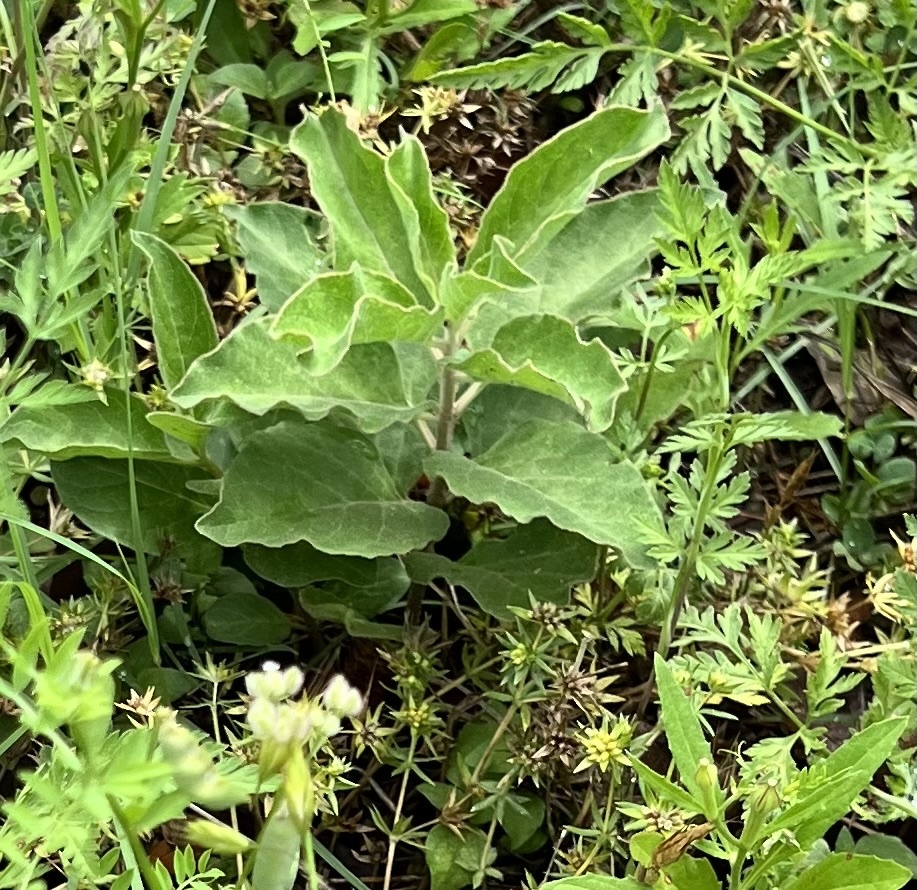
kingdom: Plantae
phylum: Tracheophyta
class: Magnoliopsida
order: Gentianales
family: Apocynaceae
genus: Asclepias
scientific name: Asclepias oenotheroides
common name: Zizotes milkweed
